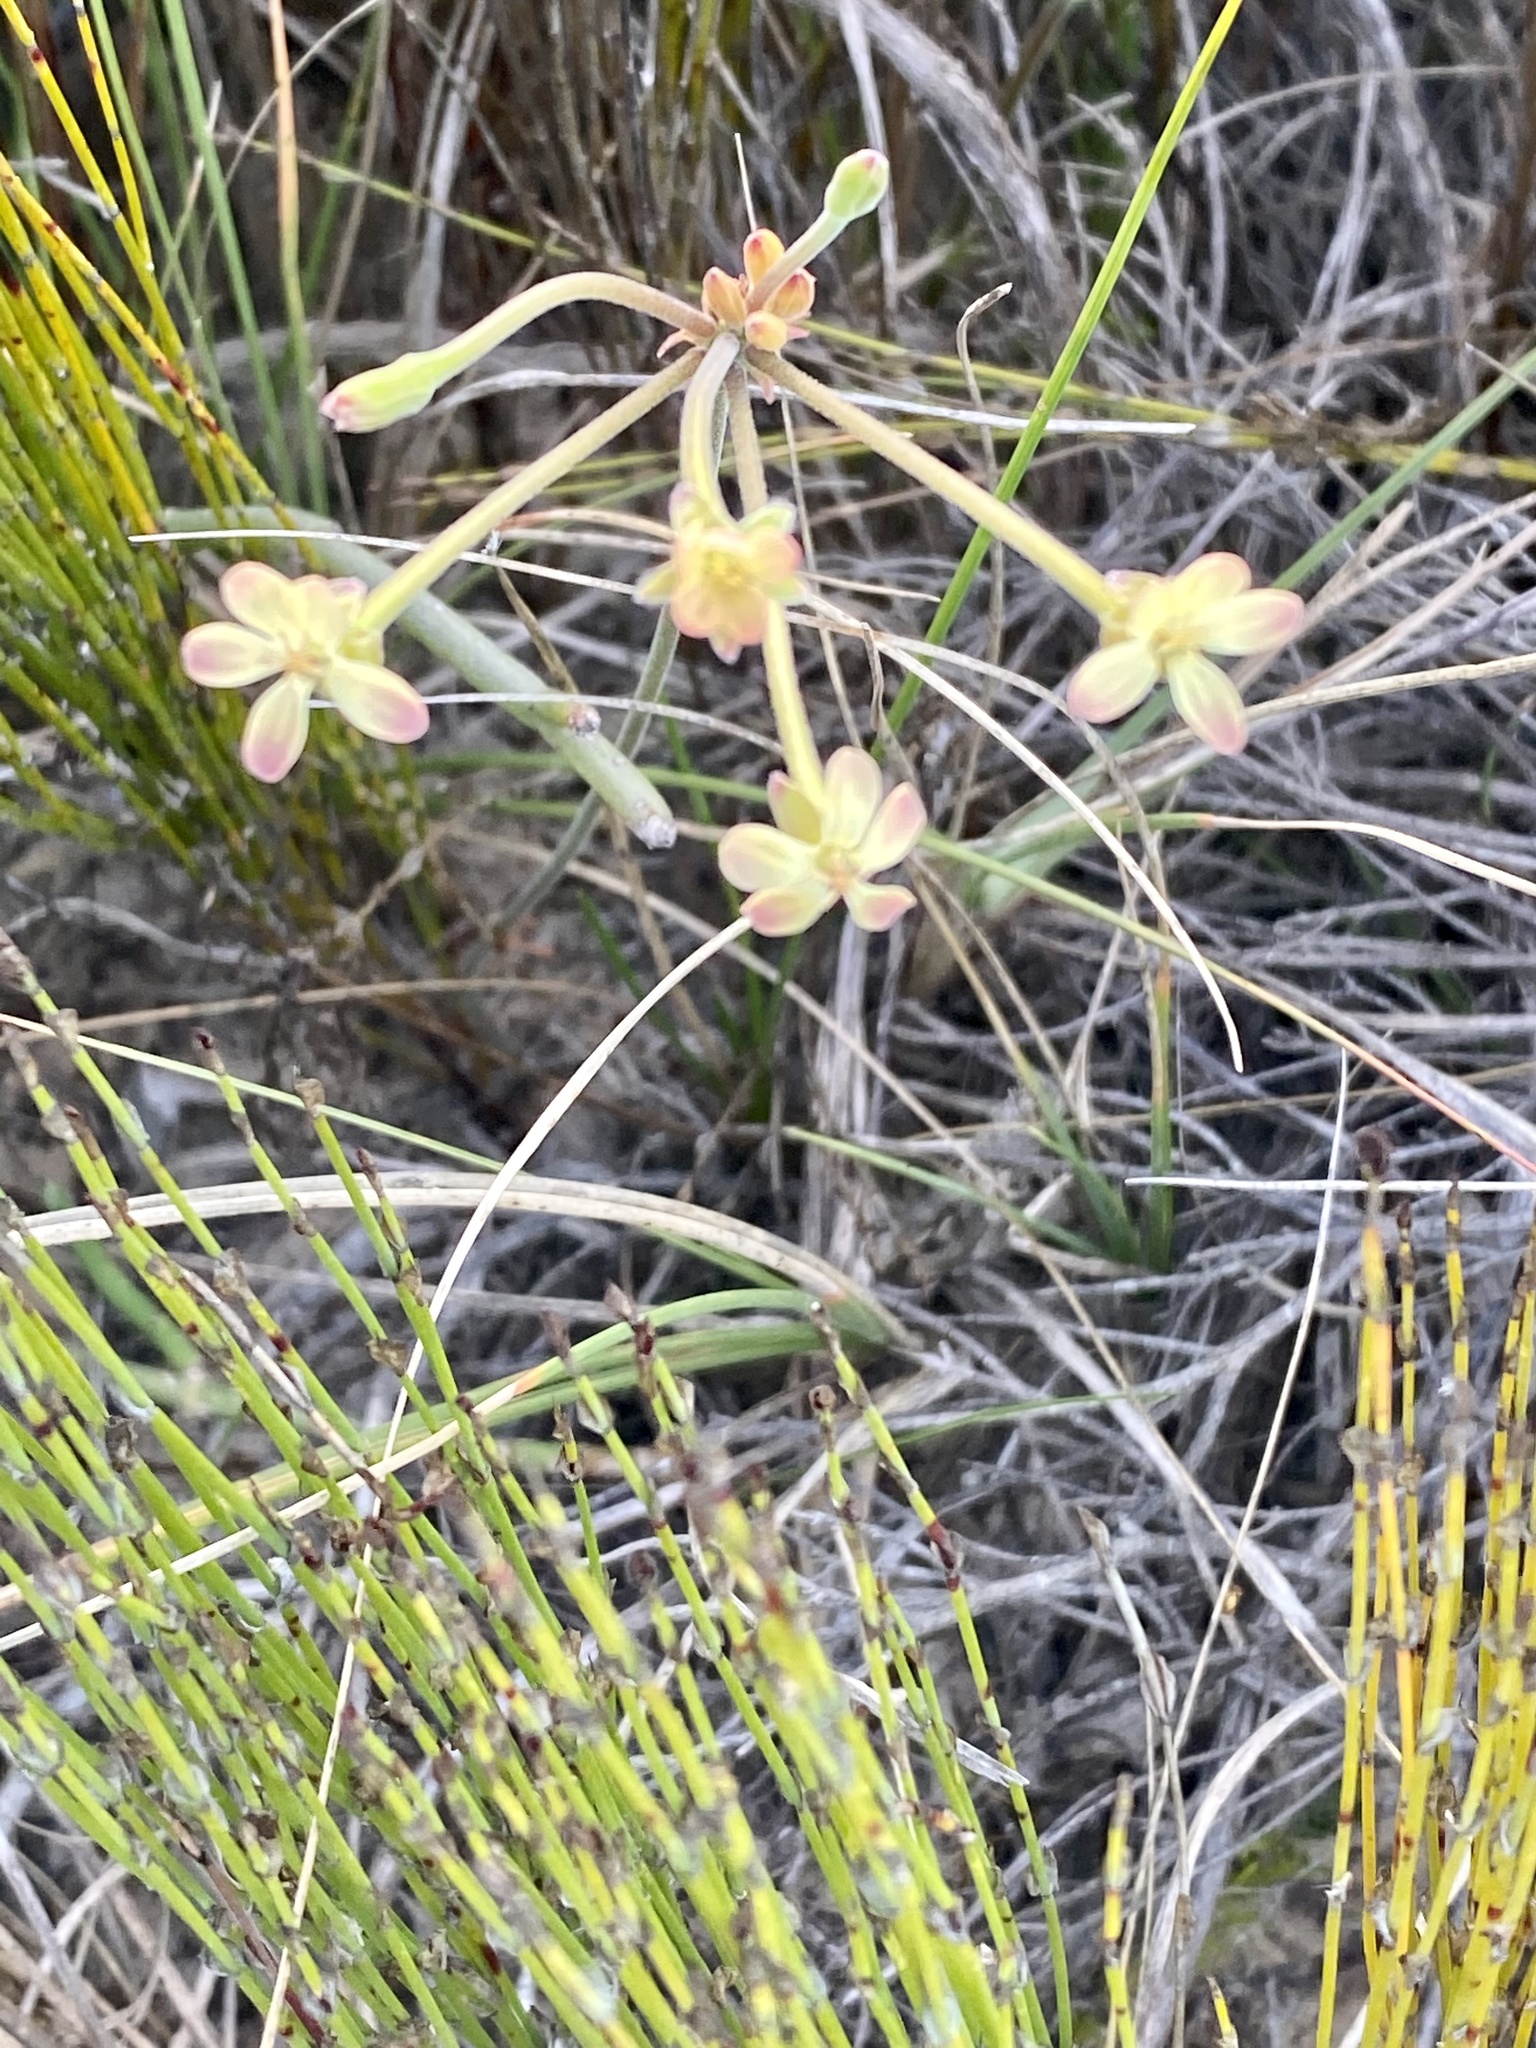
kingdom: Plantae
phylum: Tracheophyta
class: Magnoliopsida
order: Geraniales
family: Geraniaceae
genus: Pelargonium
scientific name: Pelargonium pillansii
